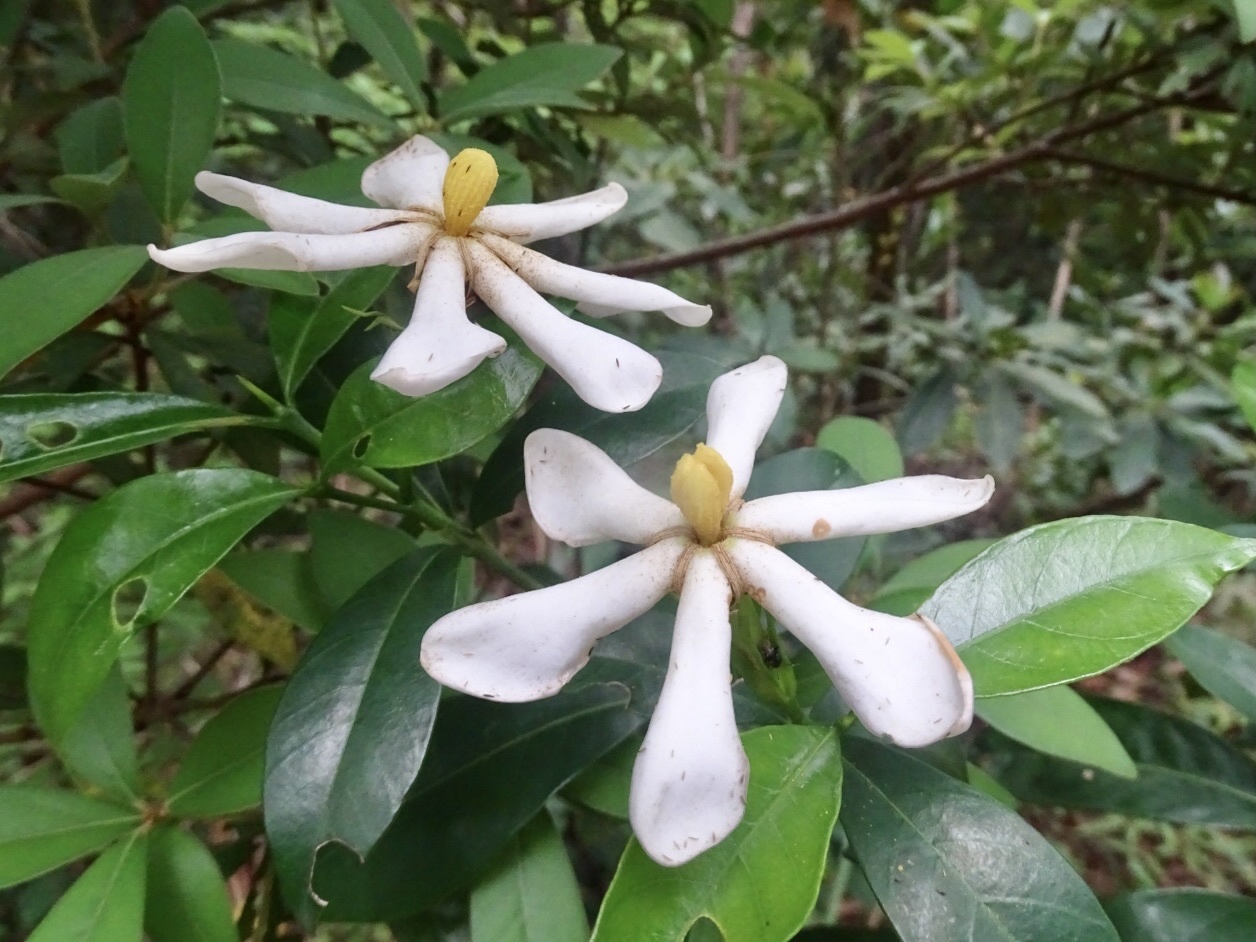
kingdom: Plantae
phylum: Tracheophyta
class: Magnoliopsida
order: Gentianales
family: Rubiaceae
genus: Gardenia
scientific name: Gardenia jasminoides
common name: Cape-jasmine
